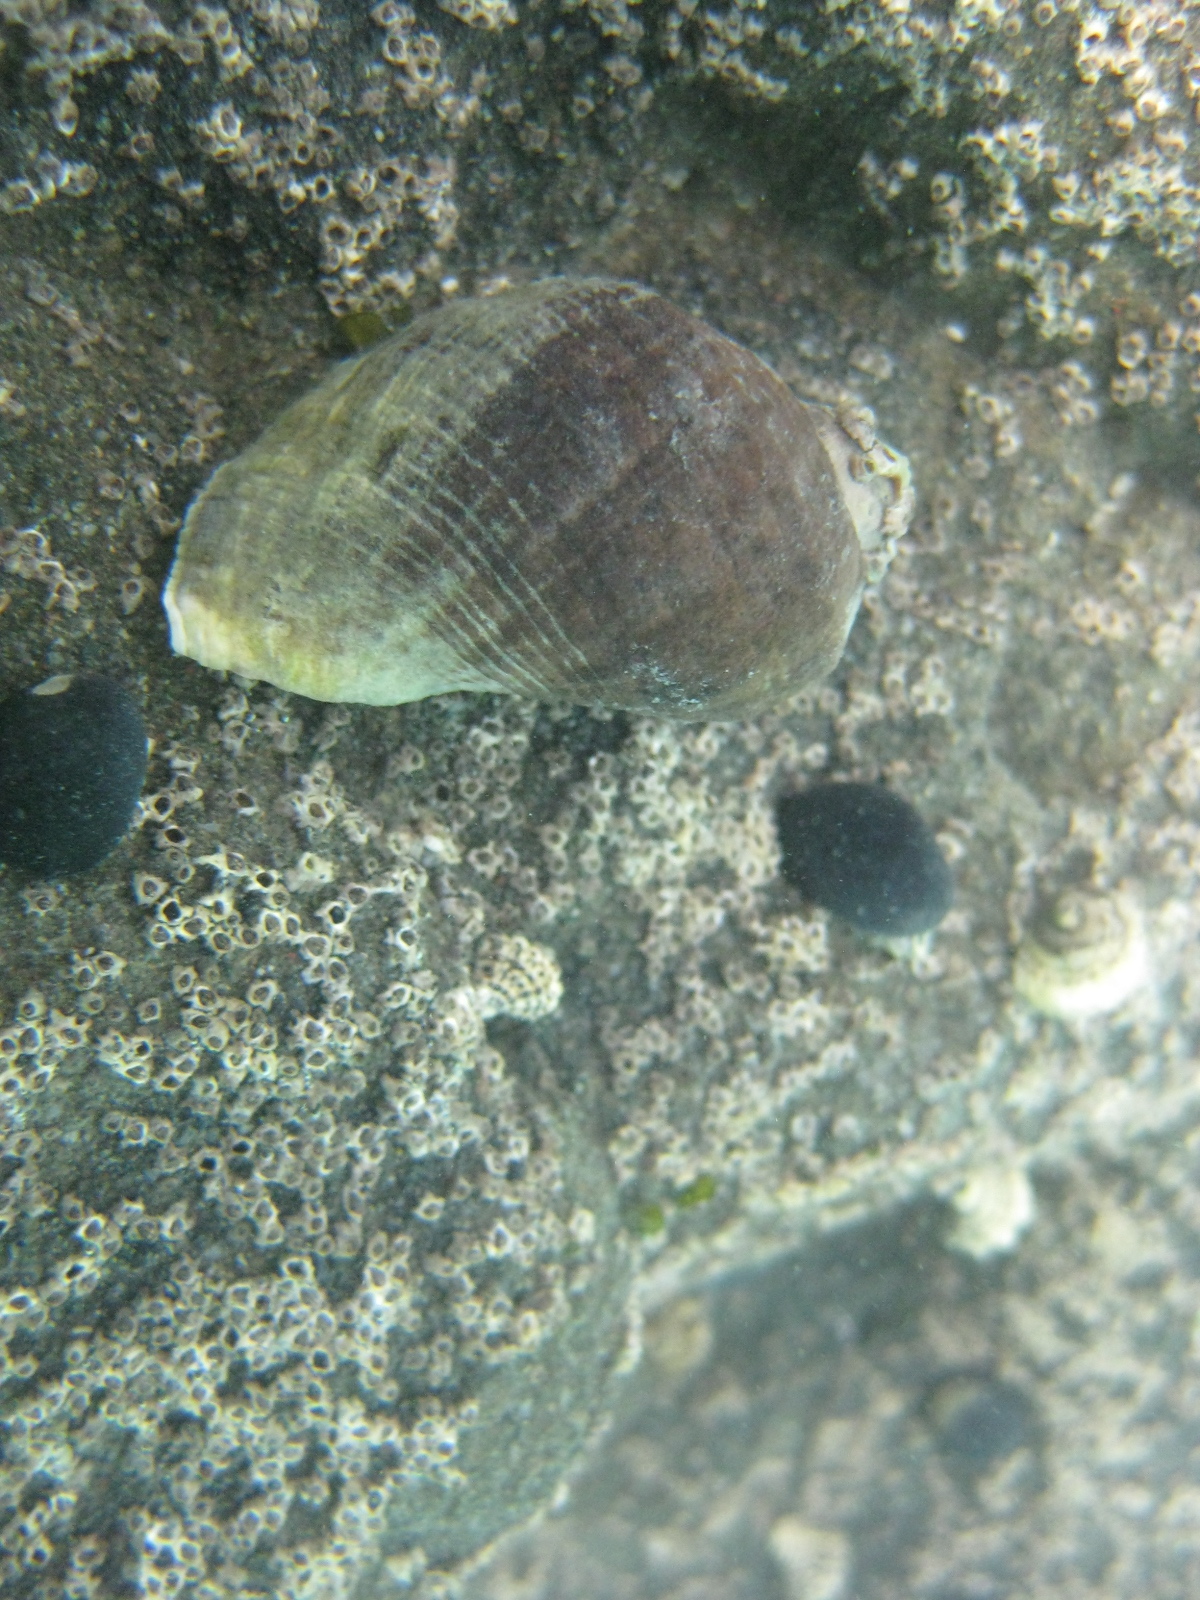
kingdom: Animalia
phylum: Mollusca
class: Gastropoda
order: Neogastropoda
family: Muricidae
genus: Haustrum
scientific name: Haustrum haustorium
